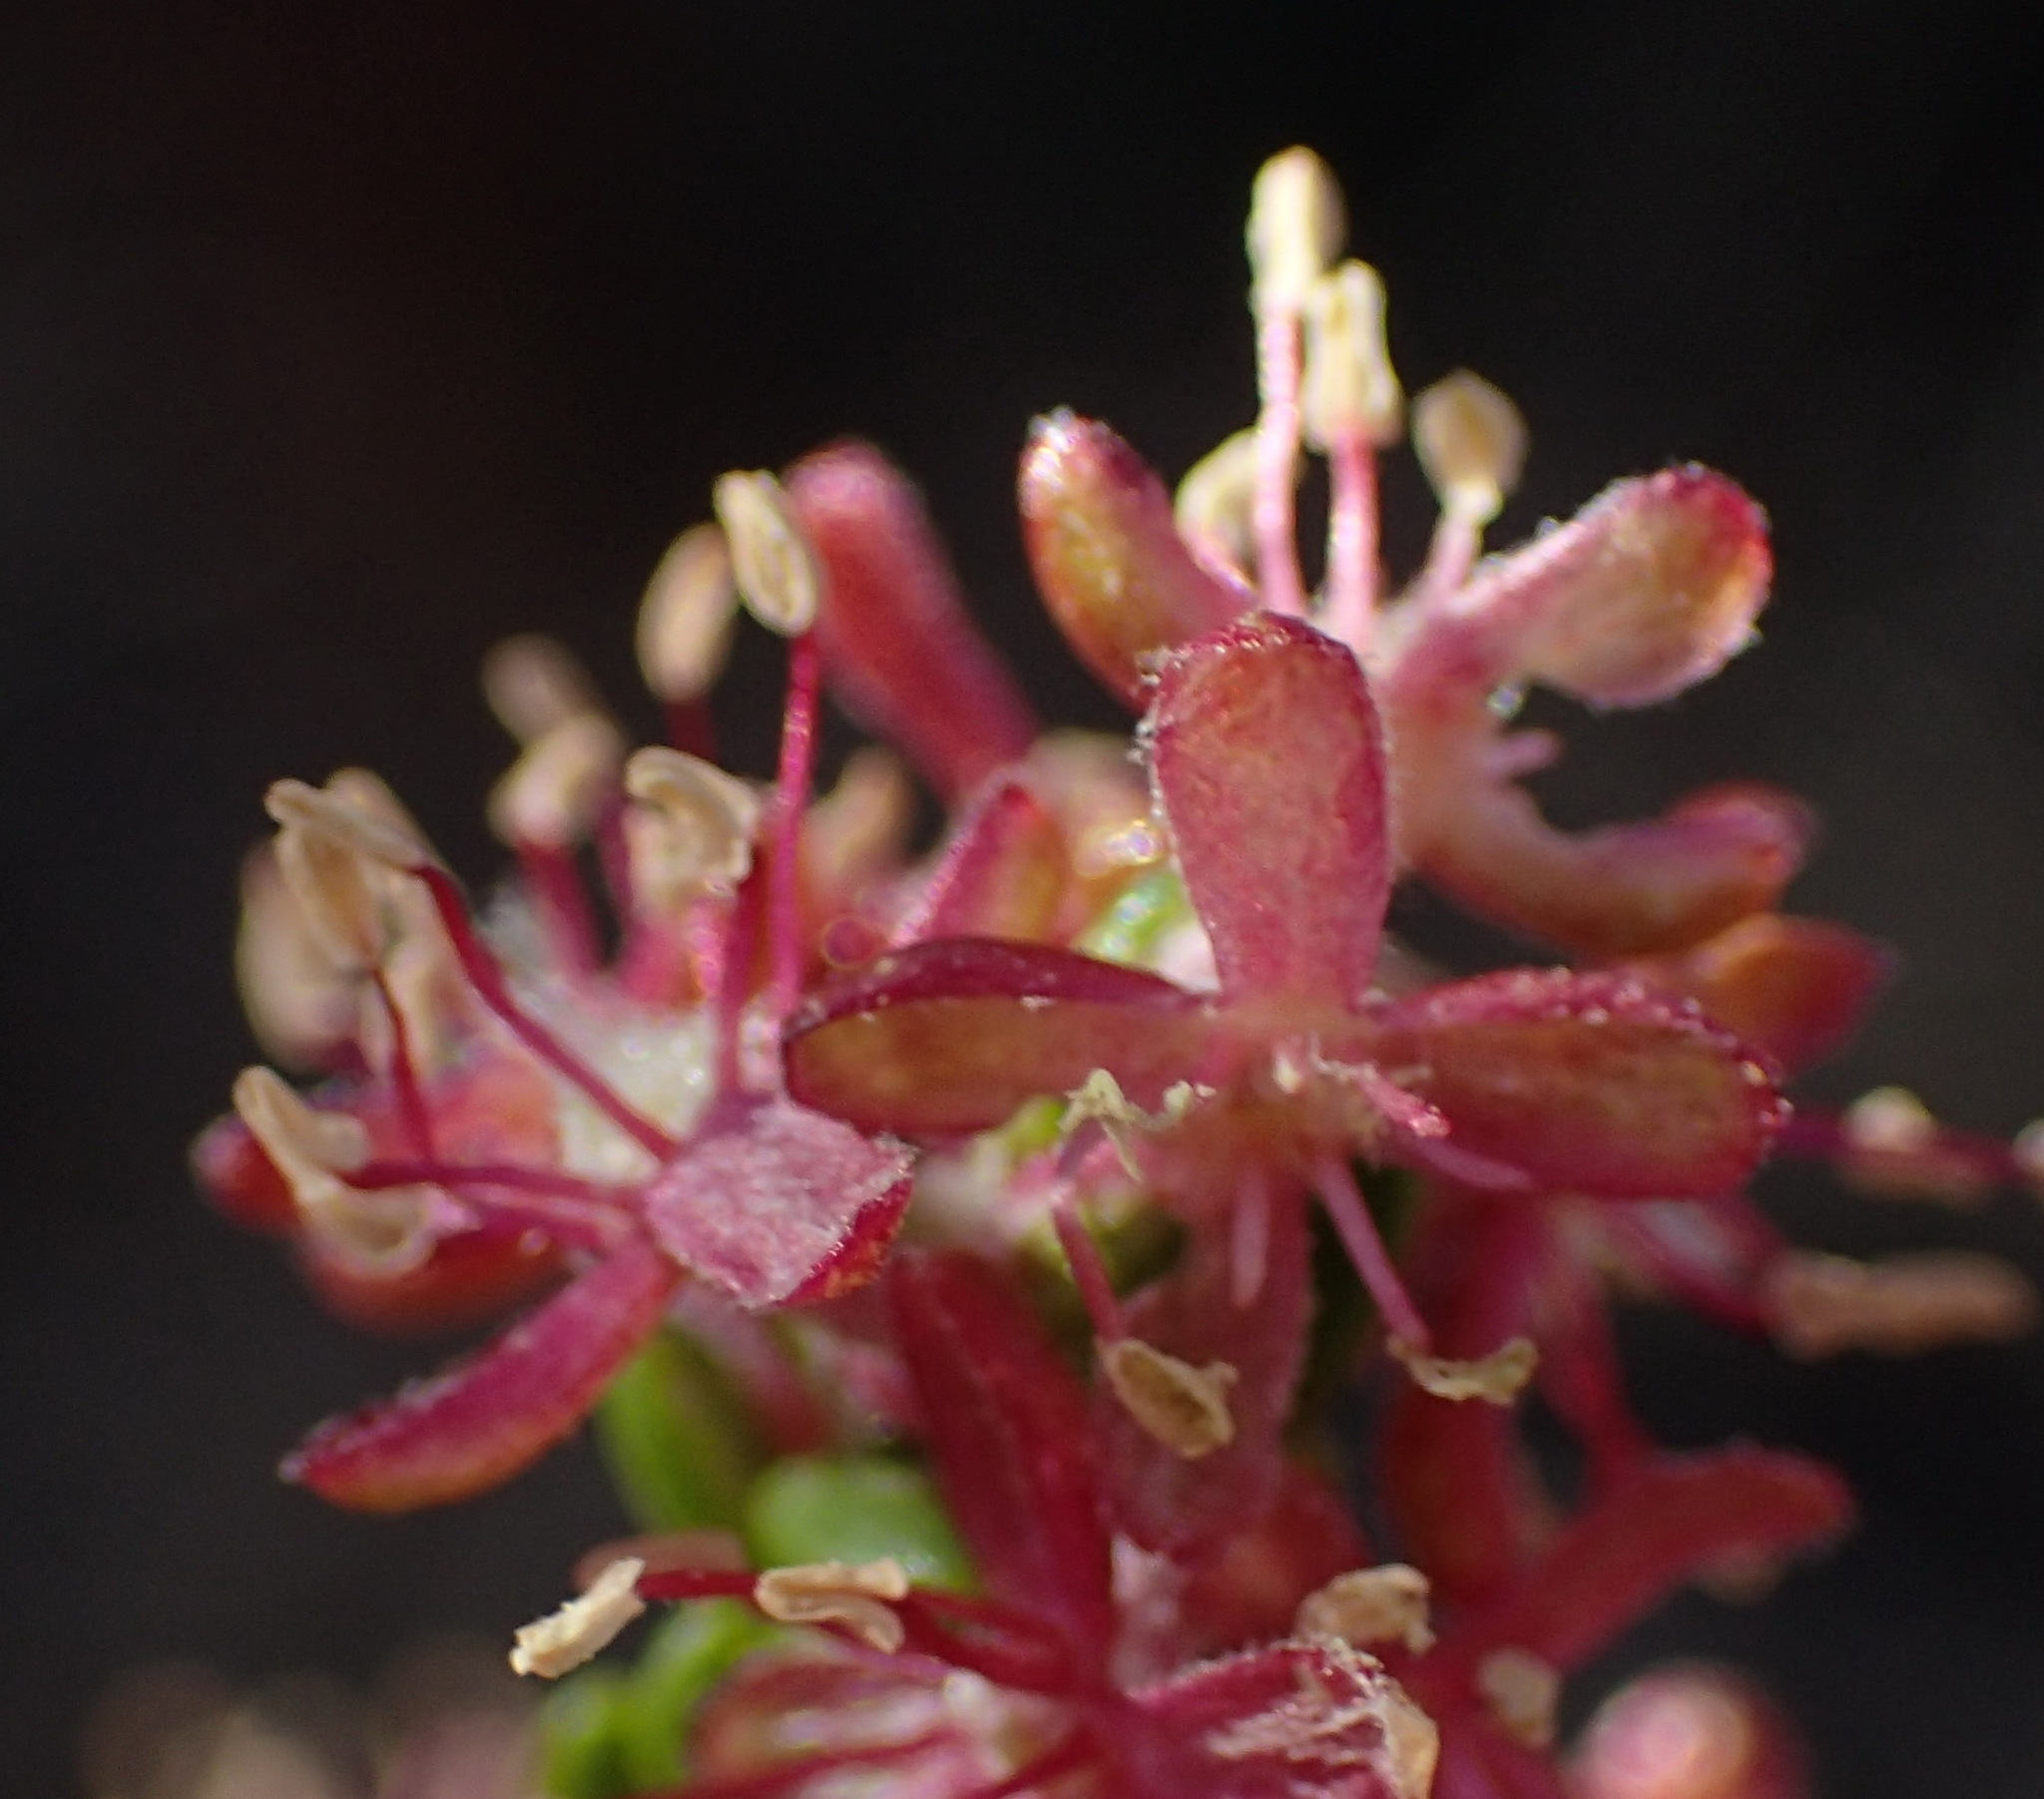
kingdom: Plantae
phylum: Tracheophyta
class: Magnoliopsida
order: Malvales
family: Thymelaeaceae
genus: Passerina
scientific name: Passerina obtusifolia
